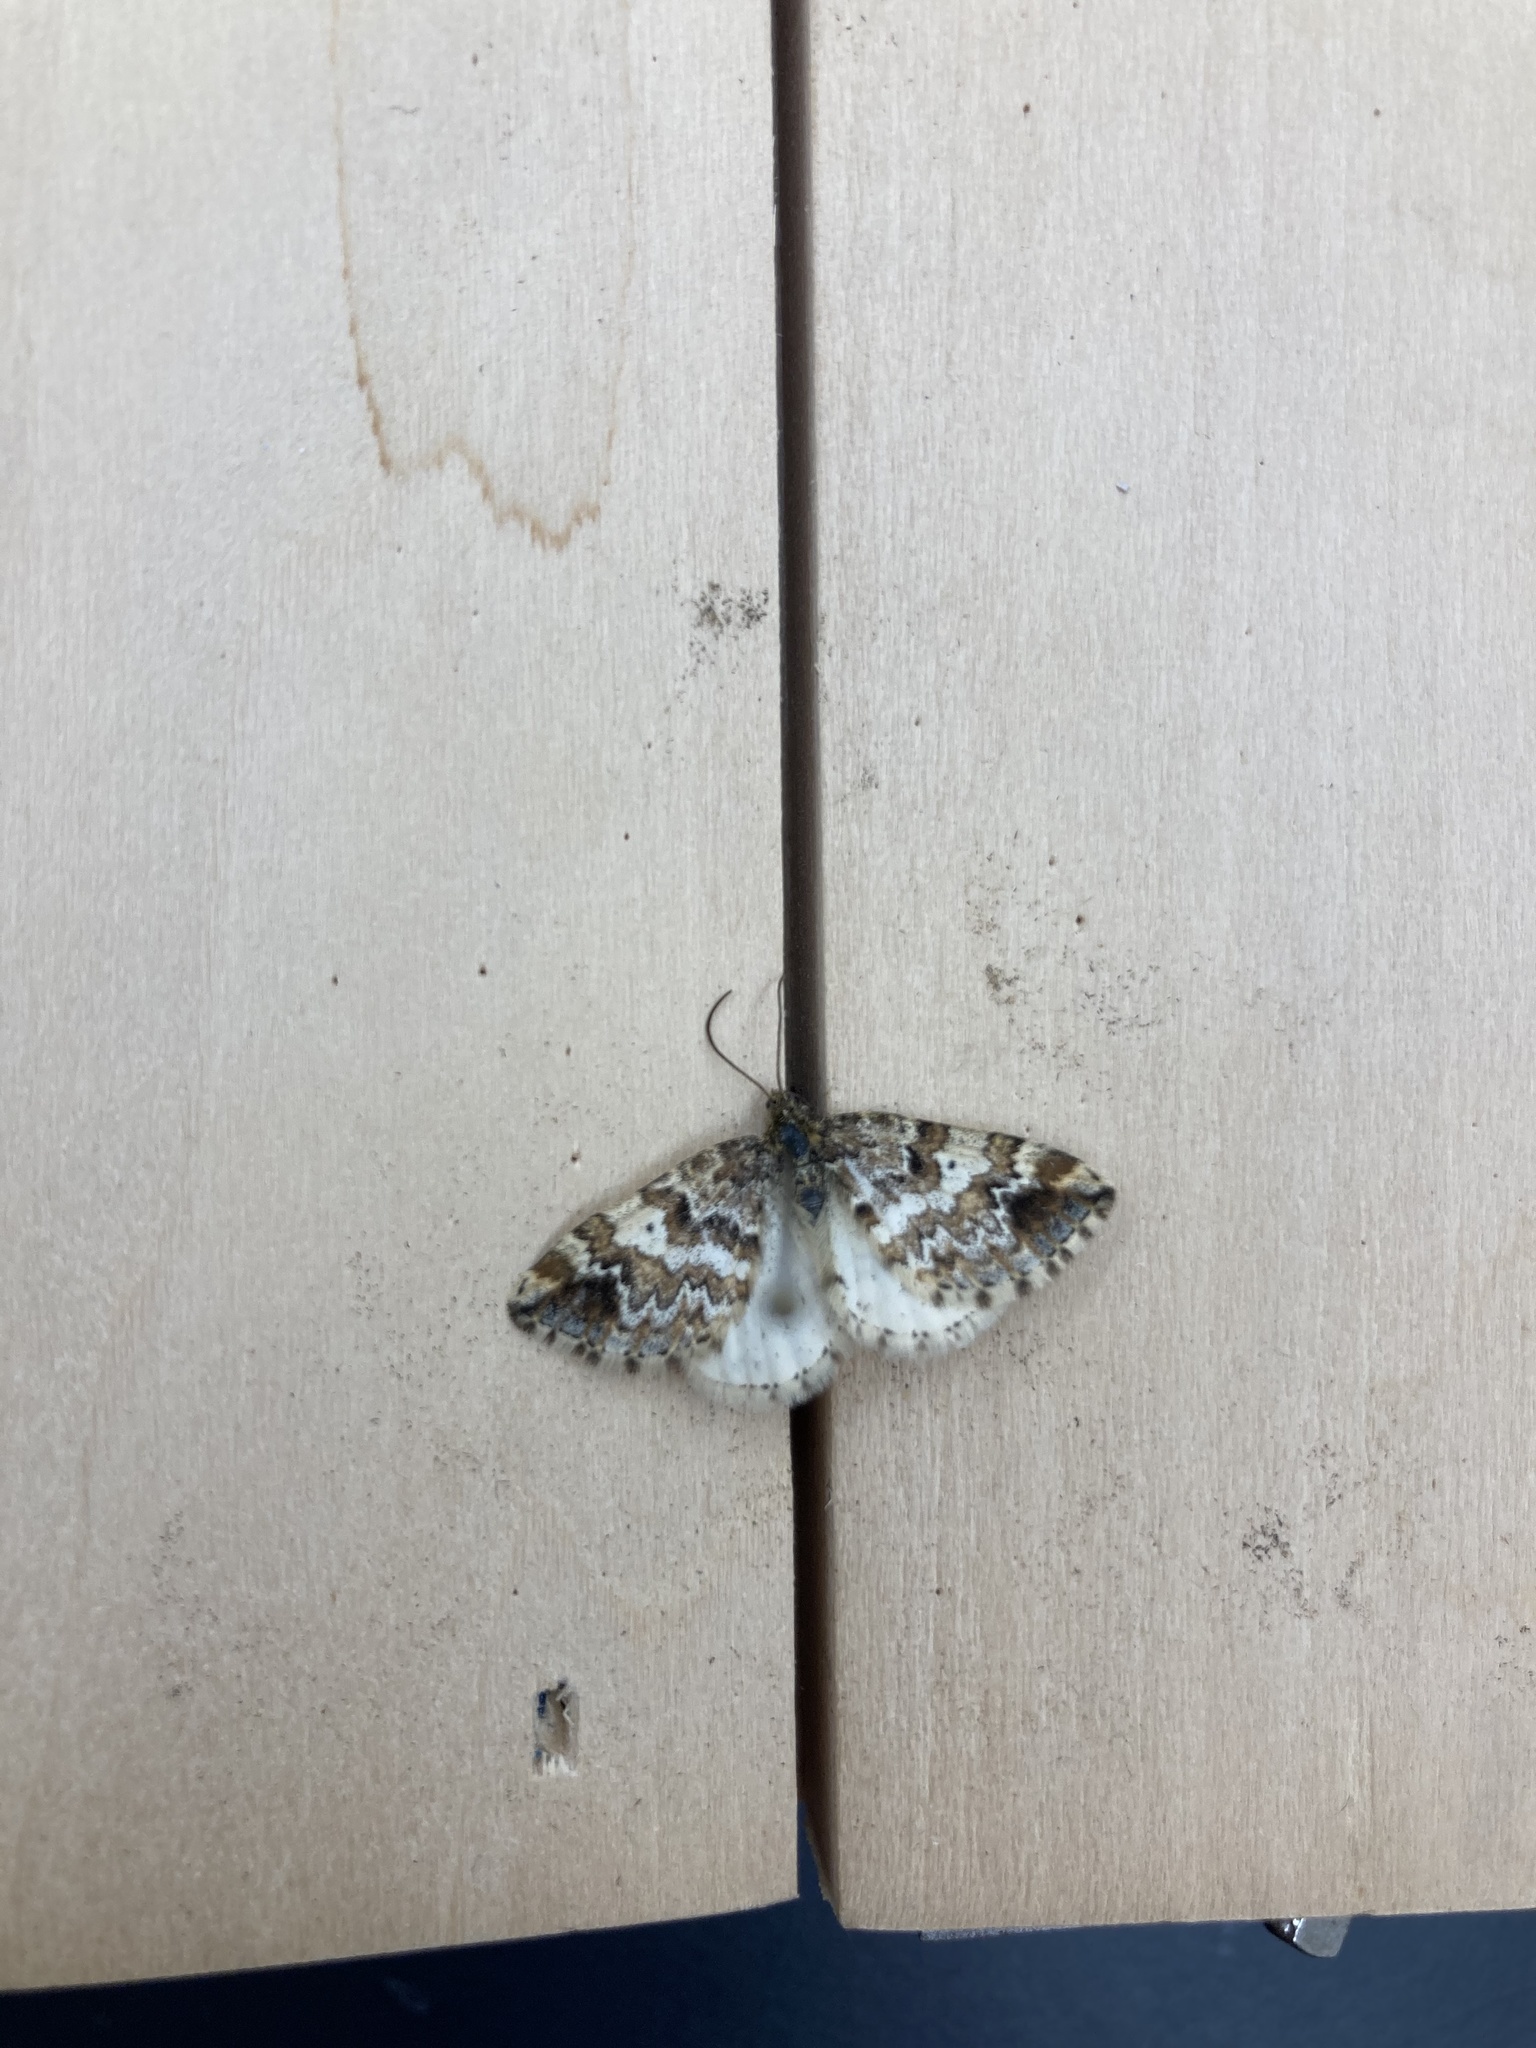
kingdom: Animalia
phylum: Arthropoda
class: Insecta
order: Lepidoptera
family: Geometridae
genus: Enchoria
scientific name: Enchoria lacteata
